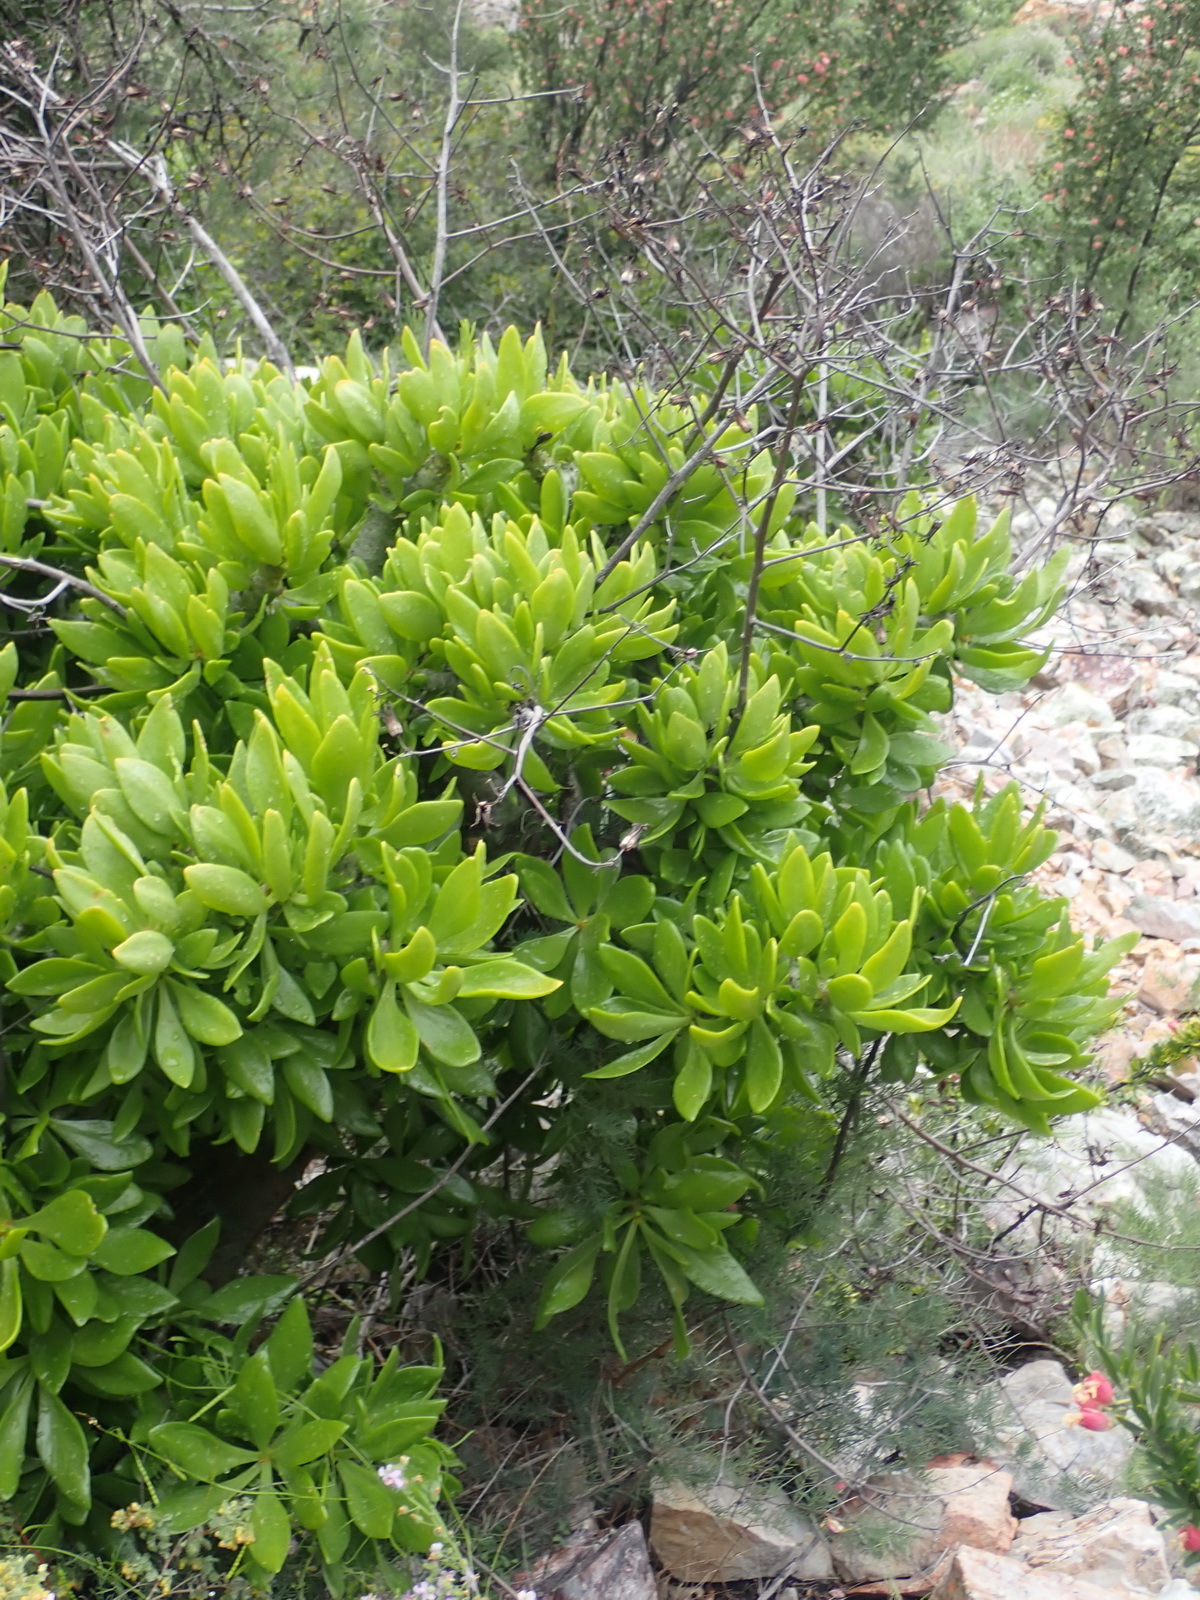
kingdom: Plantae
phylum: Tracheophyta
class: Magnoliopsida
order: Saxifragales
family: Crassulaceae
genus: Tylecodon
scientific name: Tylecodon paniculatus
